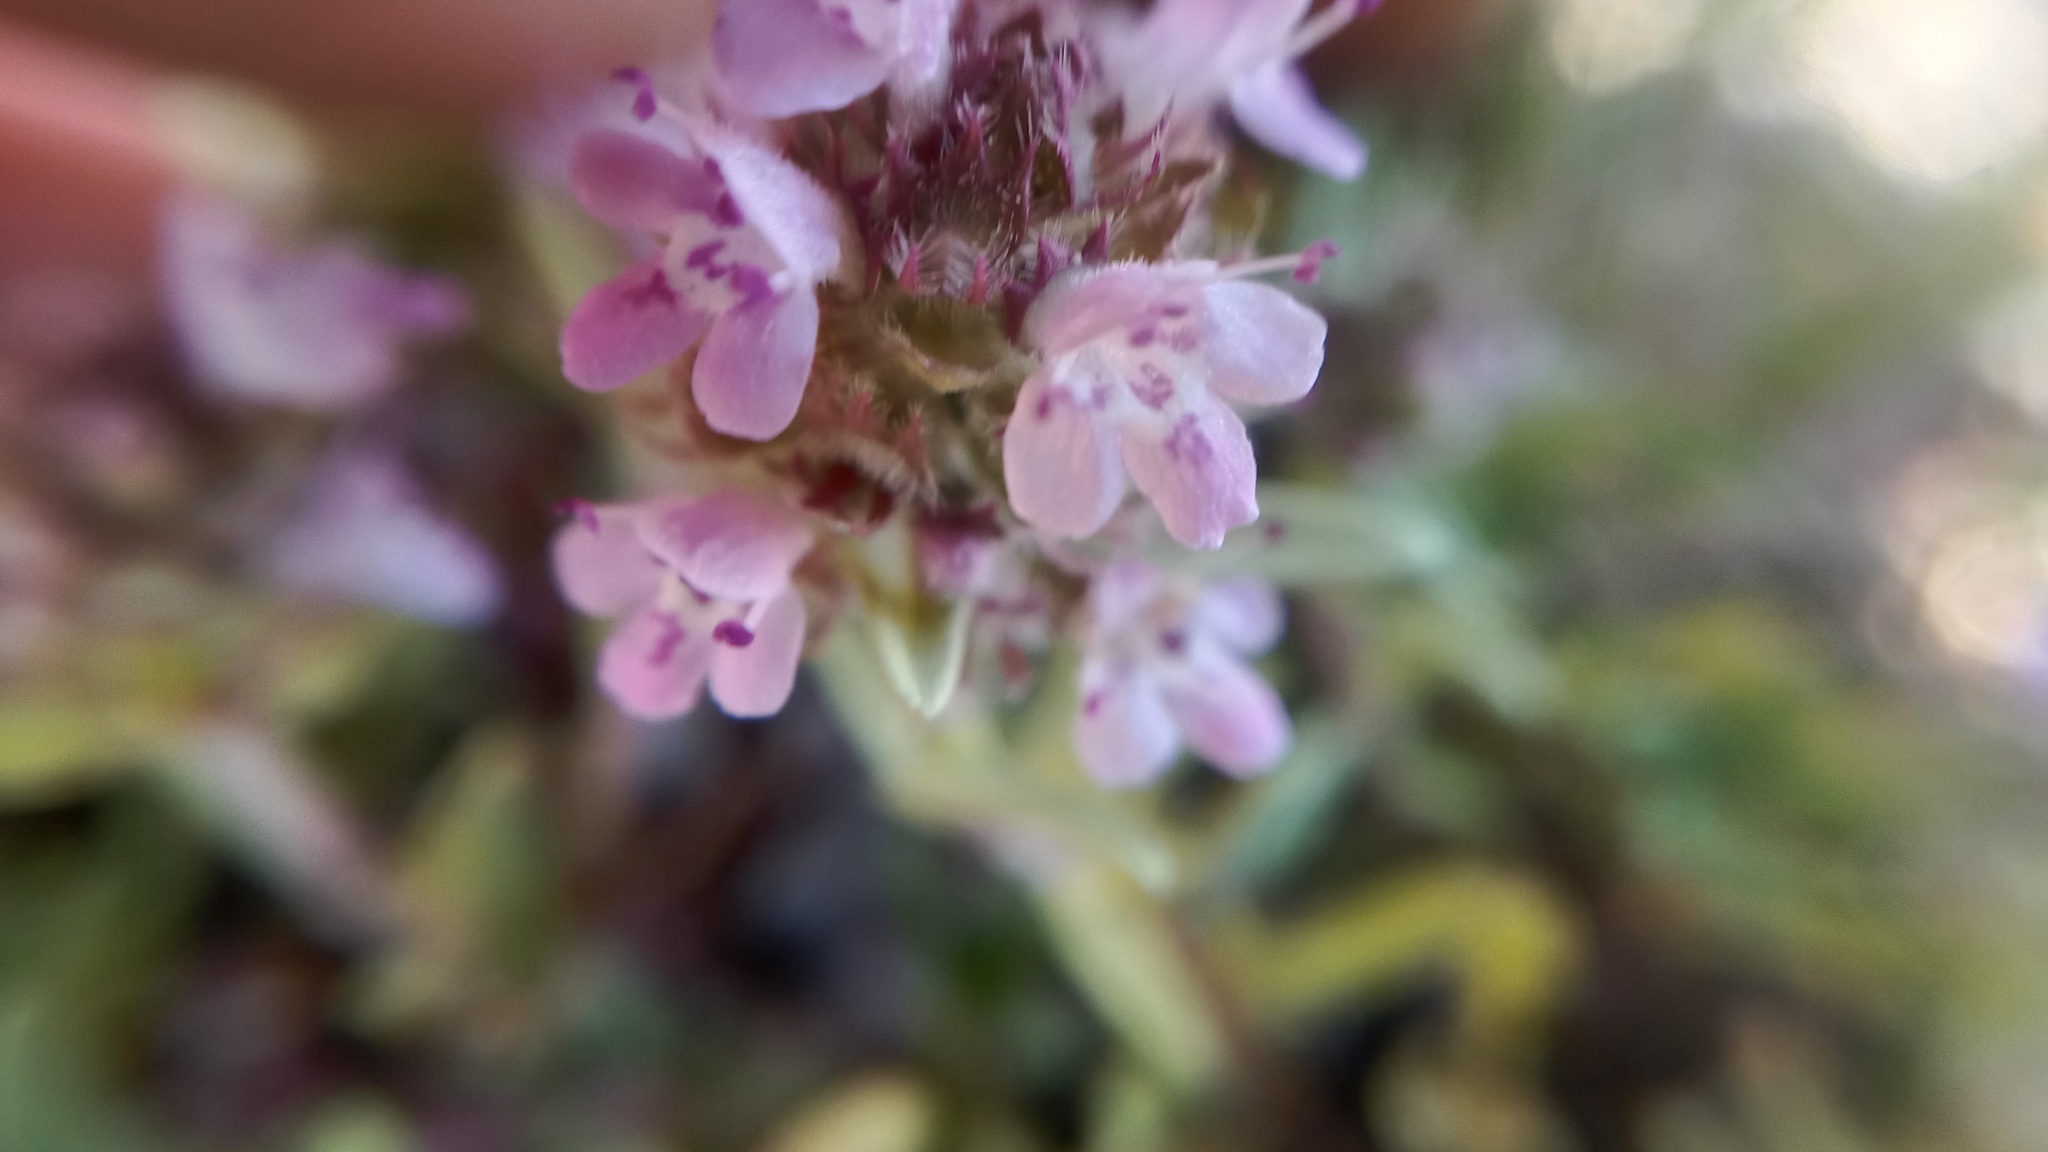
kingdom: Plantae
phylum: Tracheophyta
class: Magnoliopsida
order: Lamiales
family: Lamiaceae
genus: Thymus
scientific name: Thymus dimorphus
